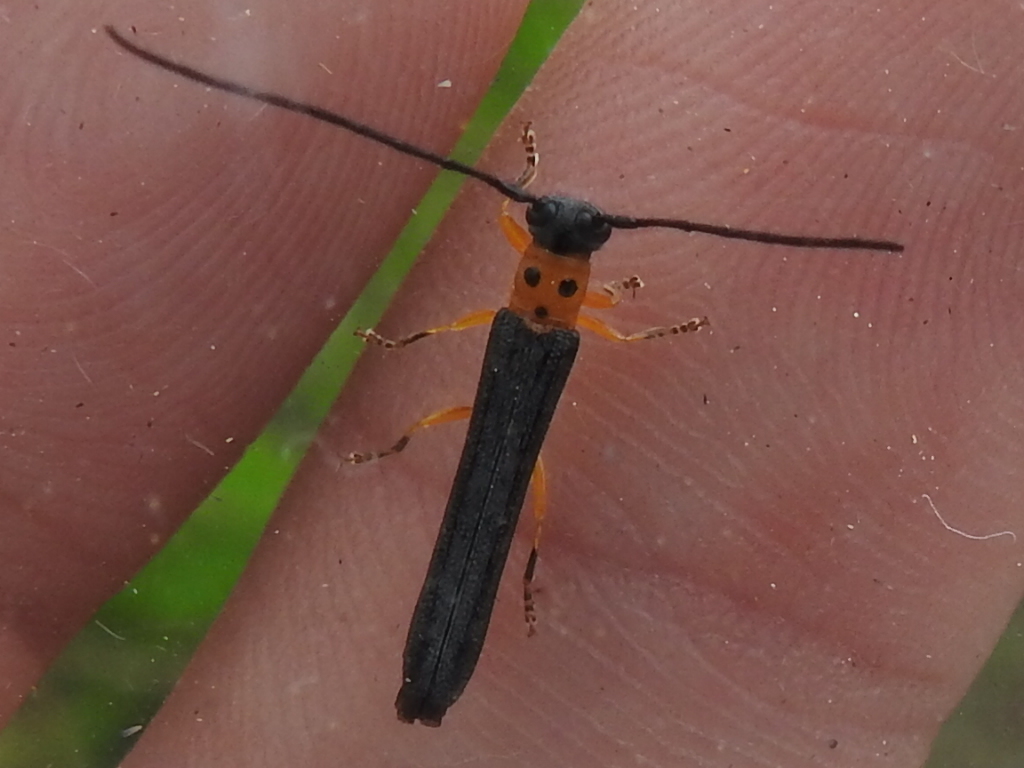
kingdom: Animalia
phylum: Arthropoda
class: Insecta
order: Coleoptera
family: Cerambycidae
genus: Oberea
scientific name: Oberea ulmicola
